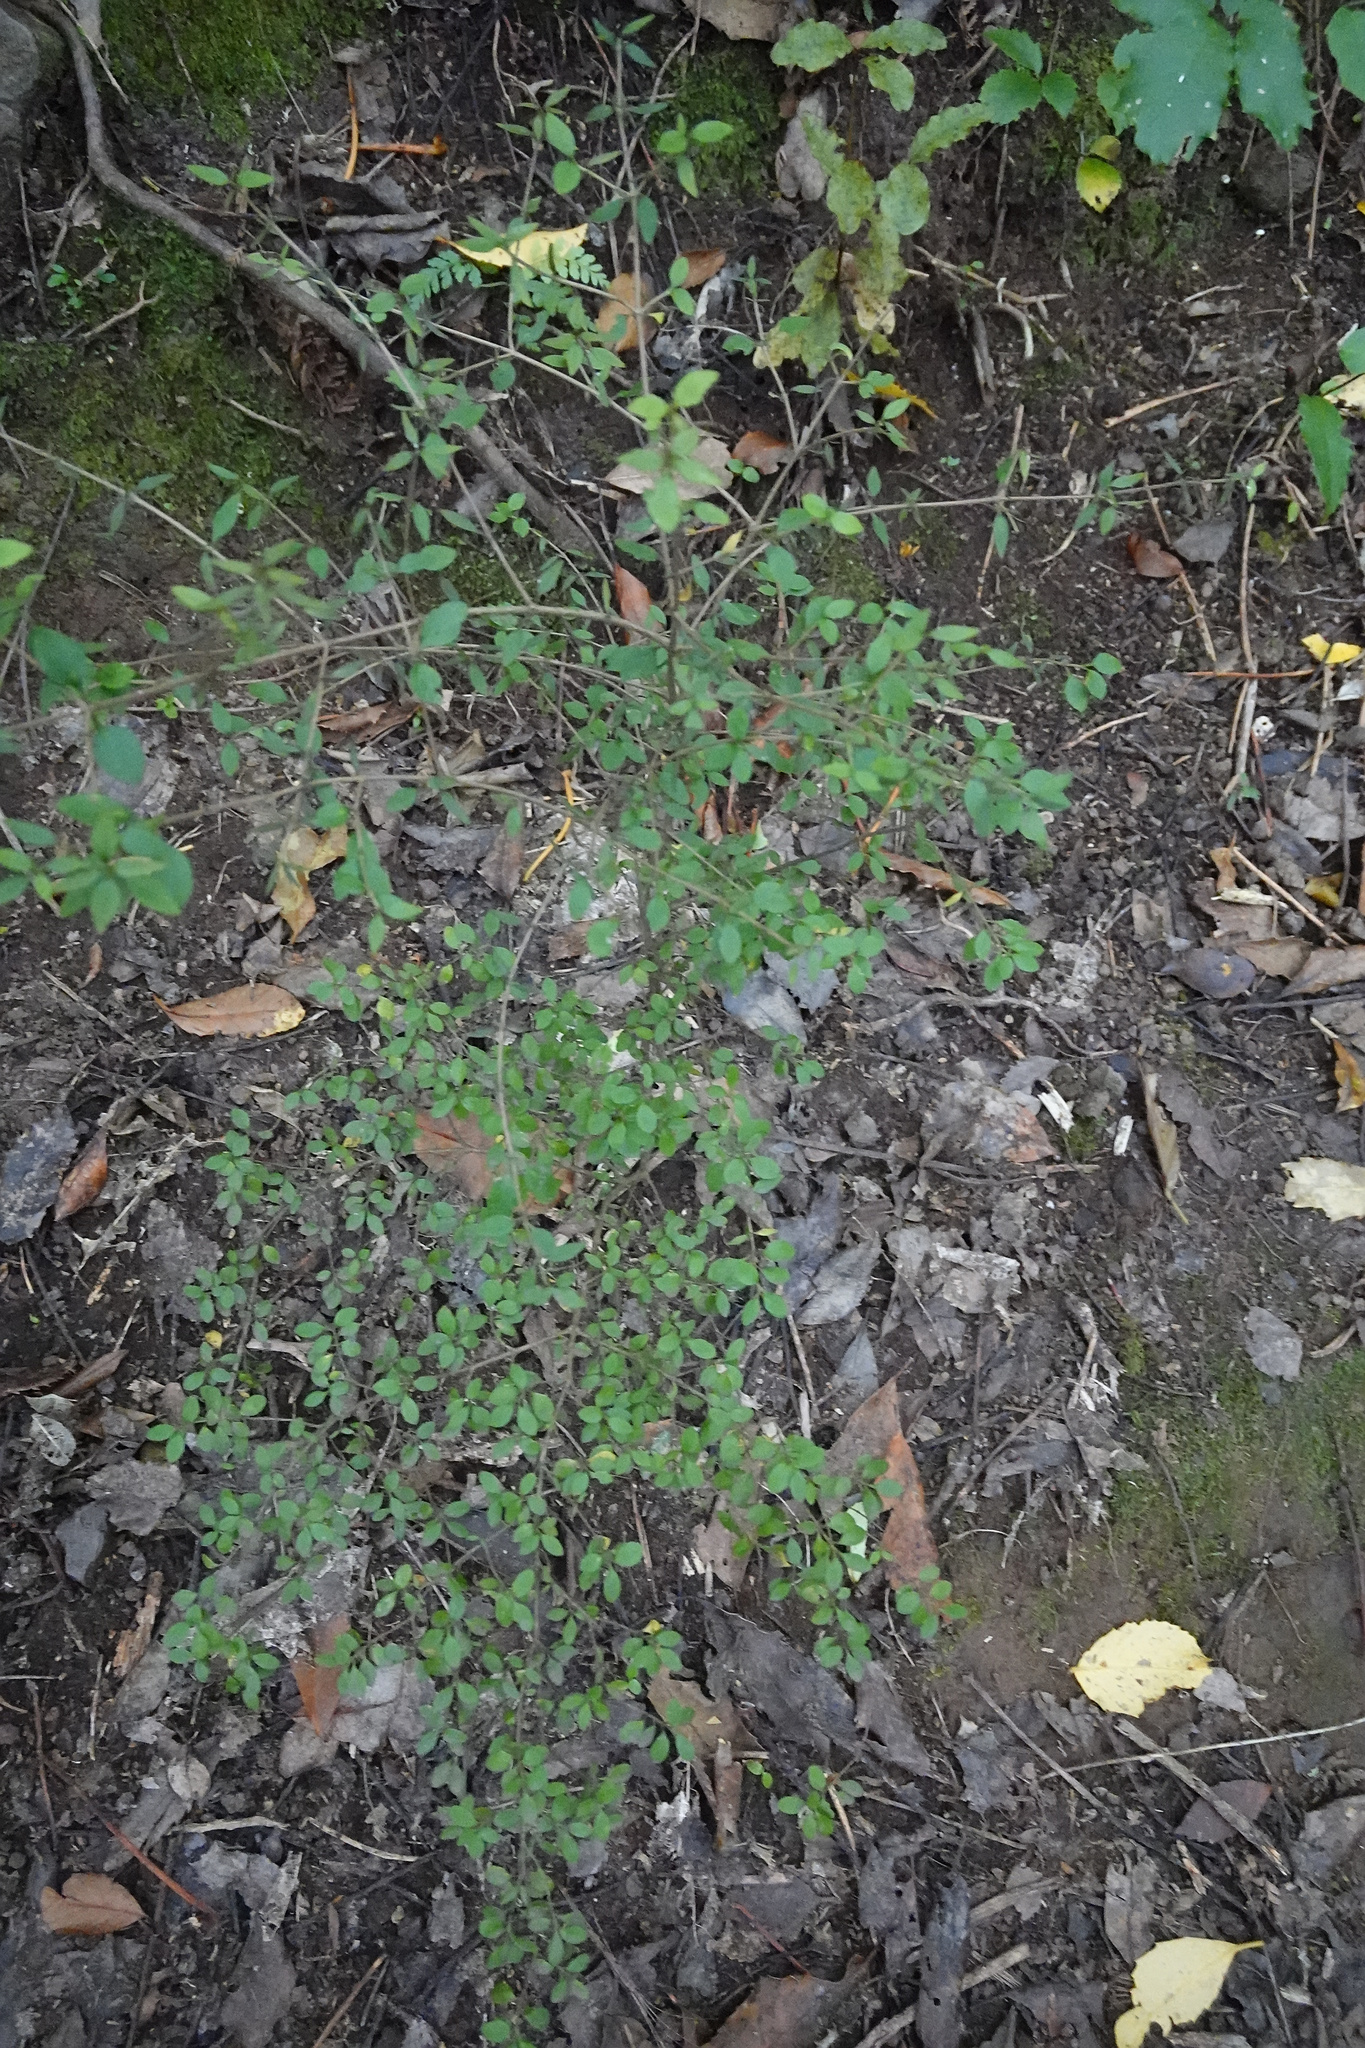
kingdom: Plantae
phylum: Tracheophyta
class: Magnoliopsida
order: Gentianales
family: Rubiaceae
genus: Coprosma
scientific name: Coprosma rhamnoides
